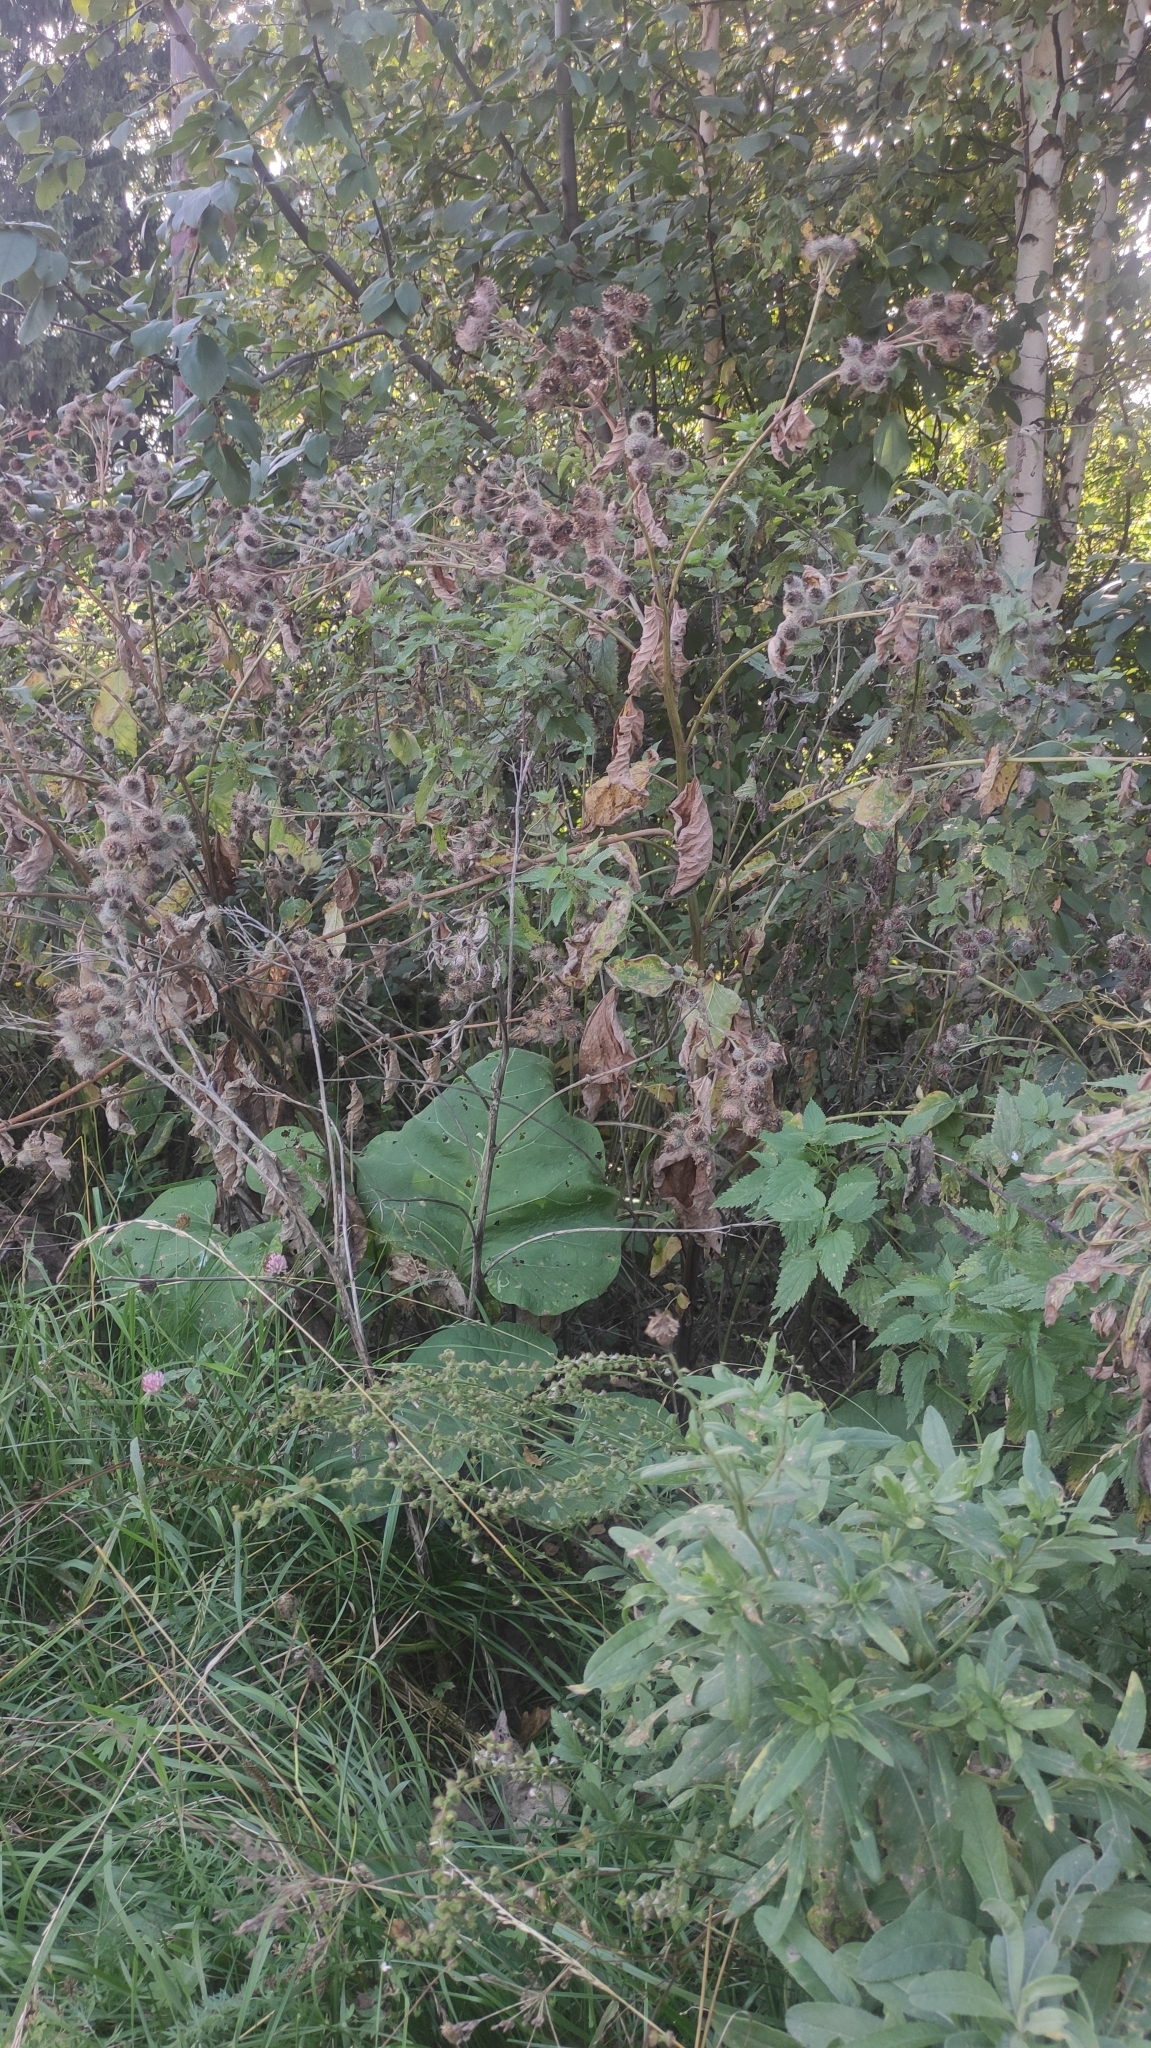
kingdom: Plantae
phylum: Tracheophyta
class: Magnoliopsida
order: Asterales
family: Asteraceae
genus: Arctium
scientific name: Arctium tomentosum
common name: Woolly burdock
